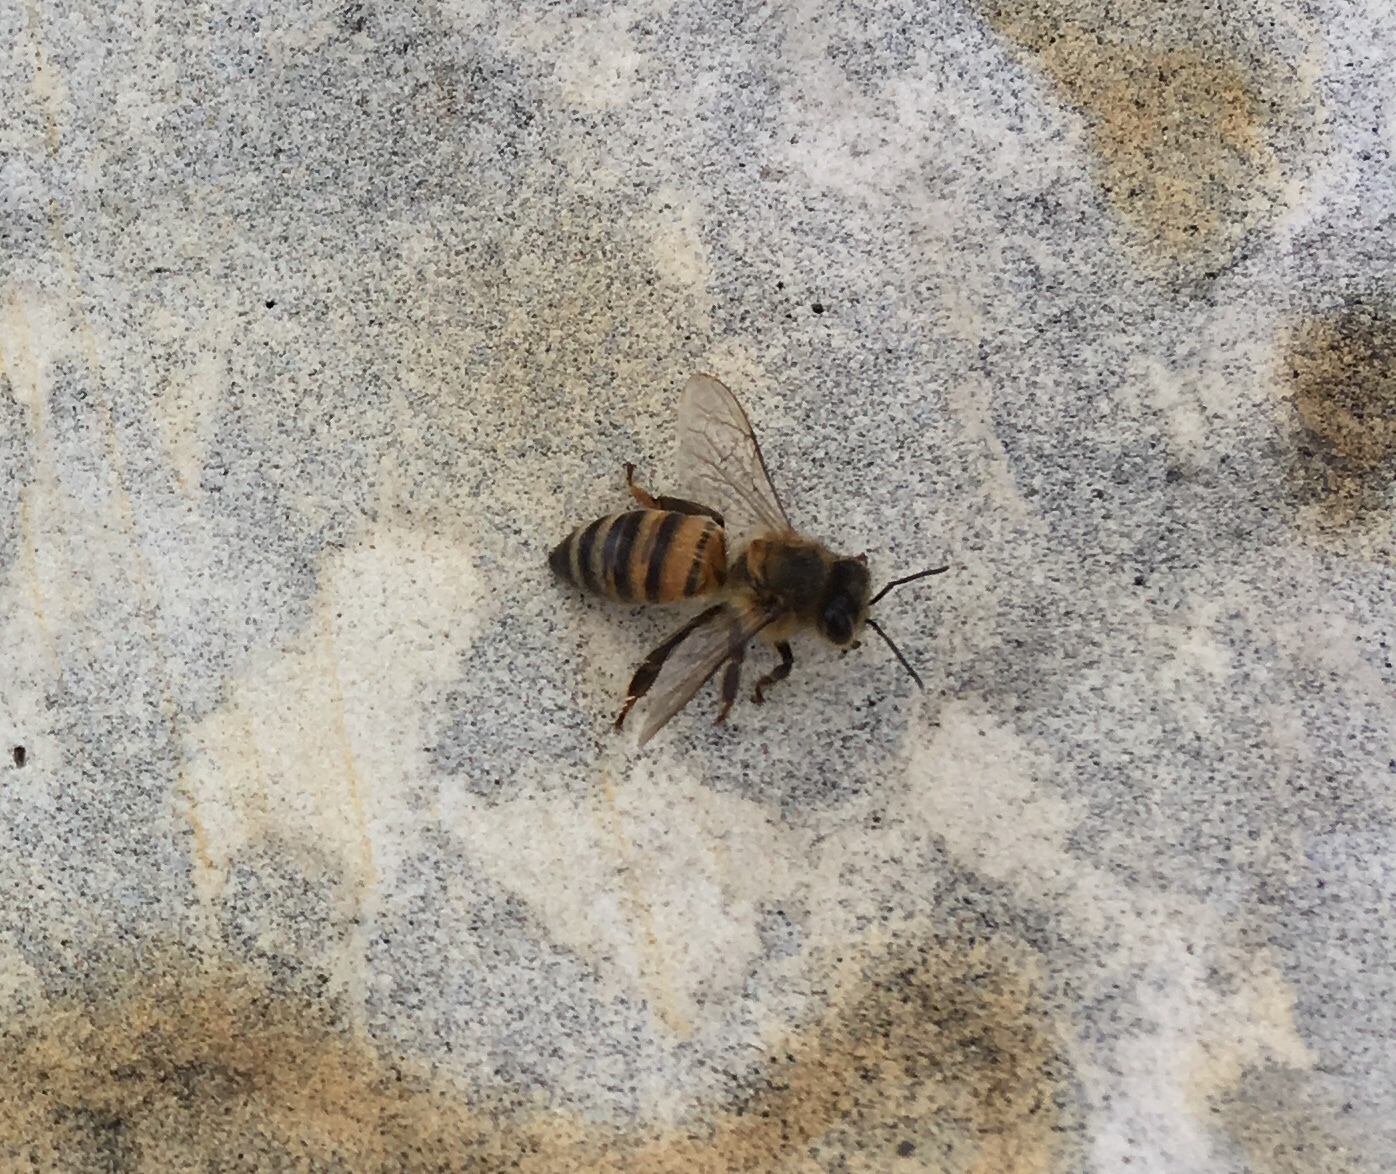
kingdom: Animalia
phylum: Arthropoda
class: Insecta
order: Hymenoptera
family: Apidae
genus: Apis
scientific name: Apis mellifera
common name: Honey bee
